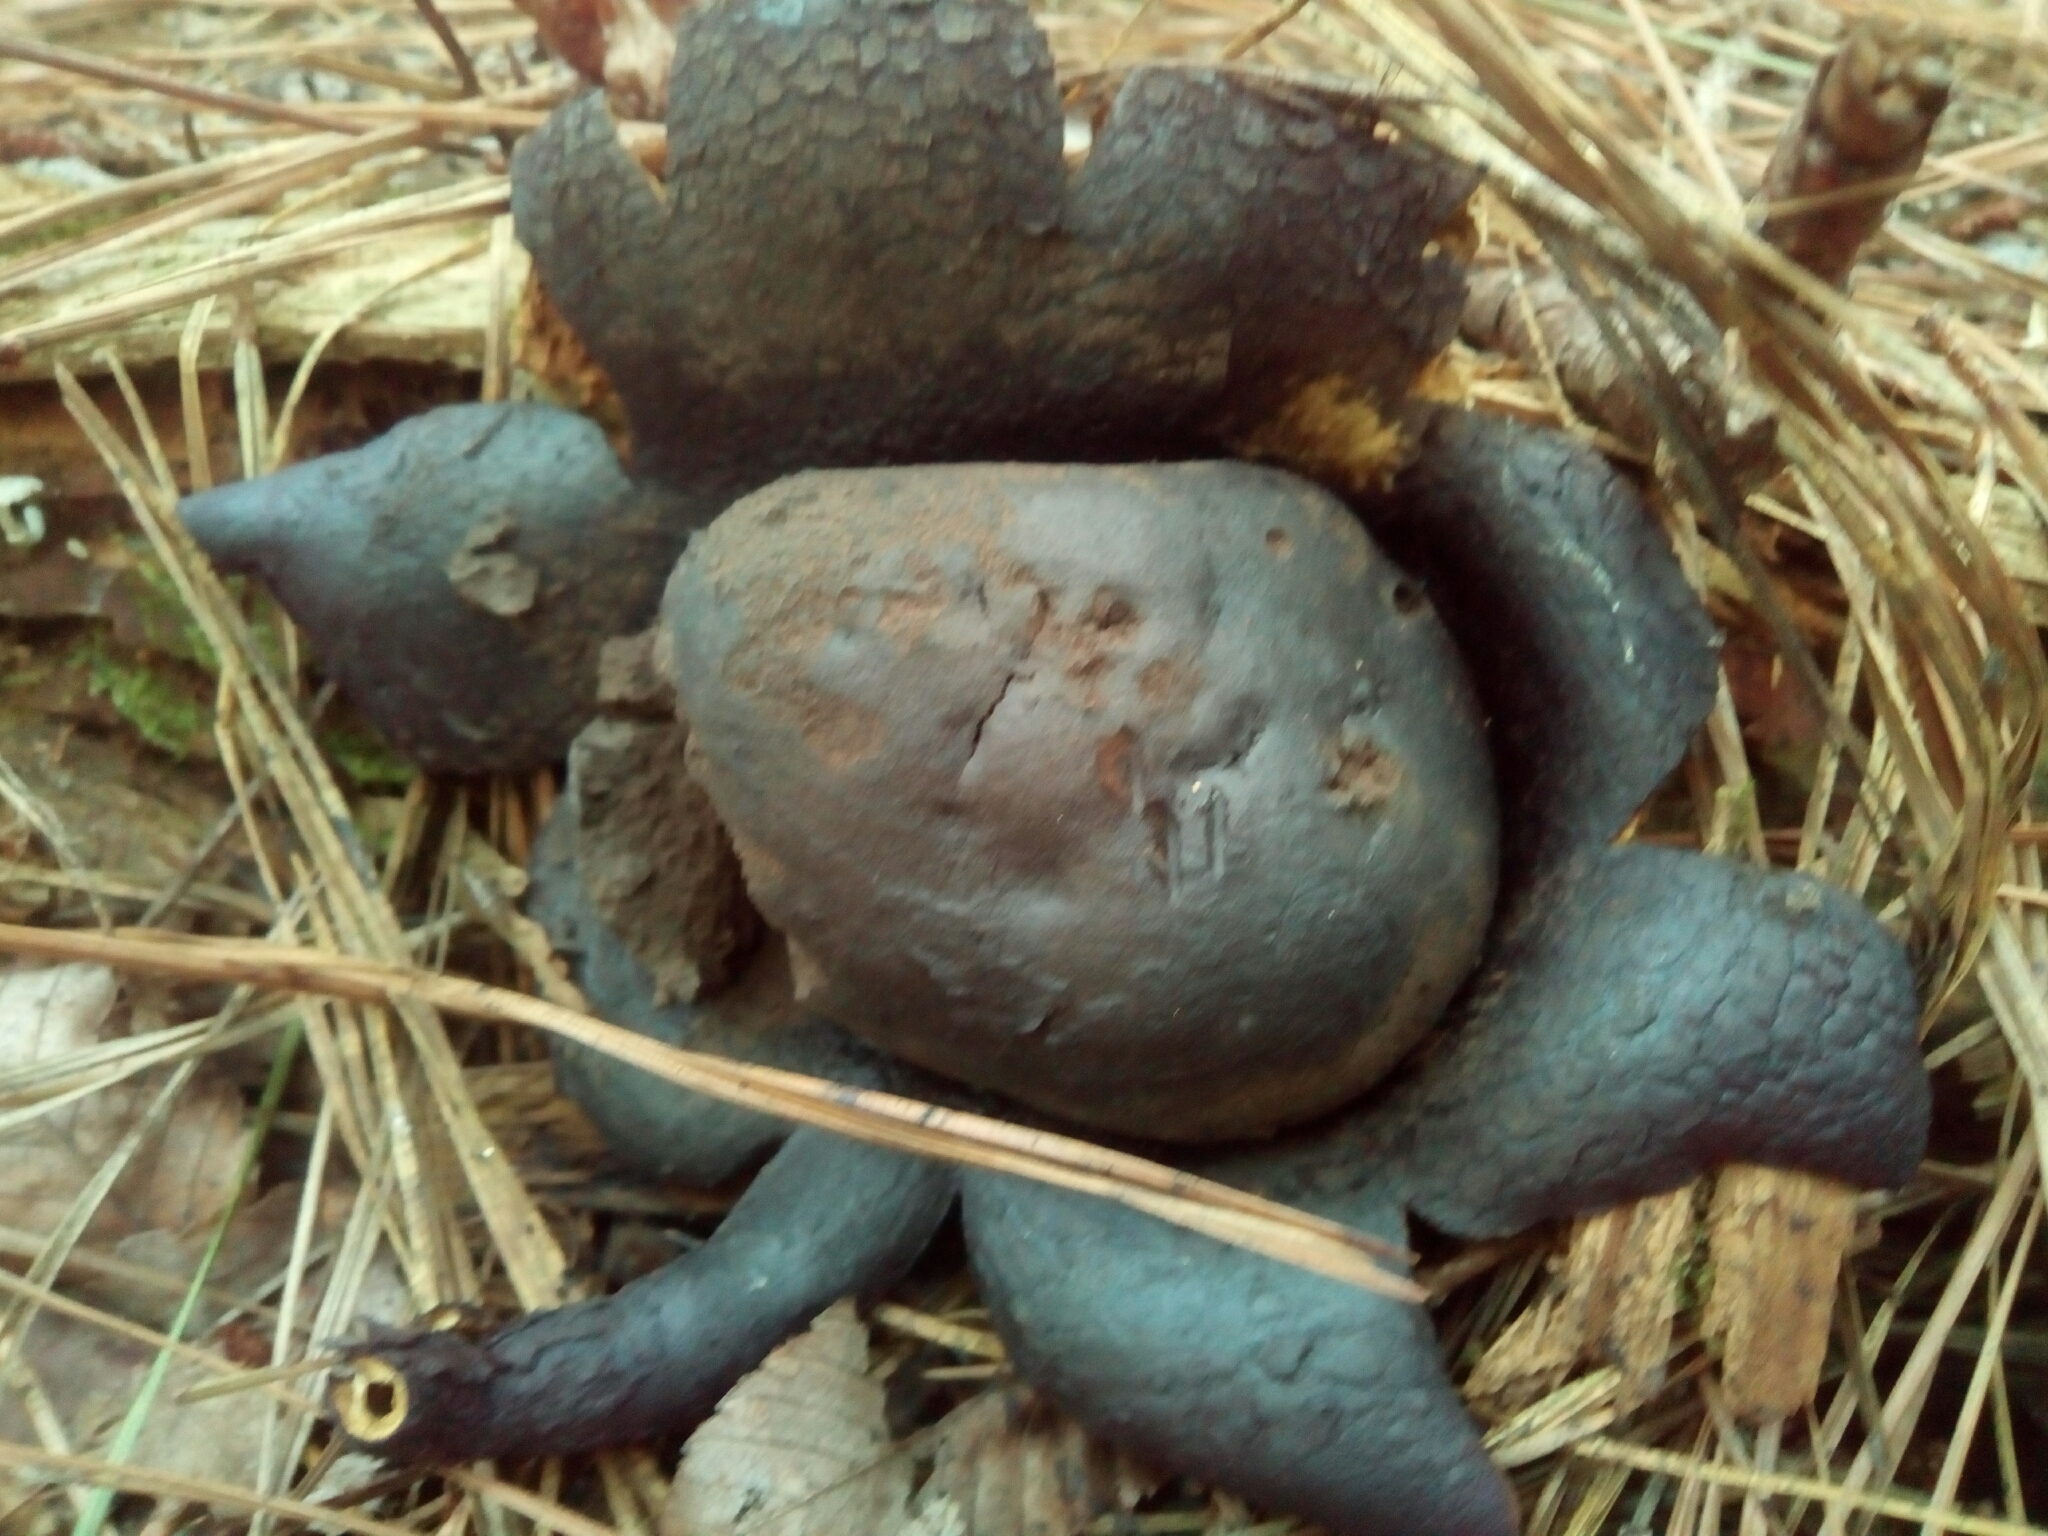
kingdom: Fungi
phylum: Basidiomycota
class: Agaricomycetes
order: Boletales
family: Sclerodermataceae
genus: Scleroderma
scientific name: Scleroderma polyrhizum
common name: Many-rooted earthball
